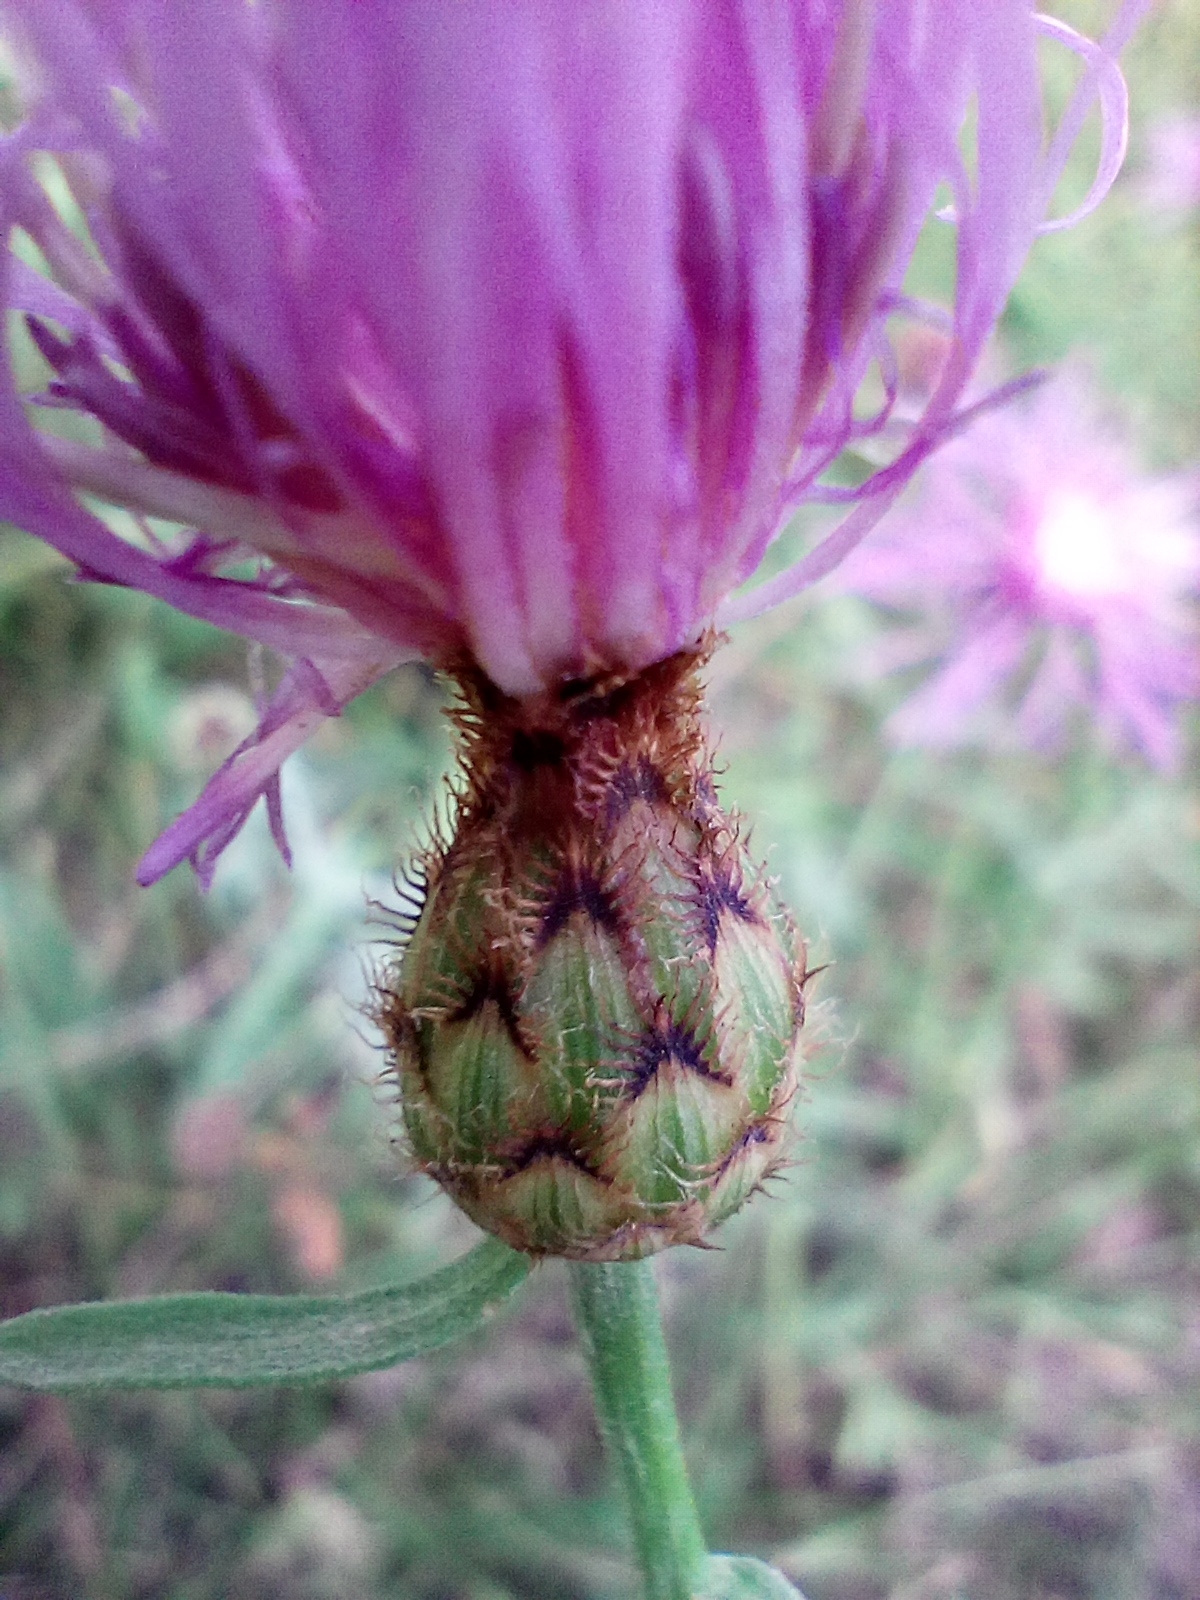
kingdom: Plantae
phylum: Tracheophyta
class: Magnoliopsida
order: Asterales
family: Asteraceae
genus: Centaurea
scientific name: Centaurea stoebe
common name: Spotted knapweed
